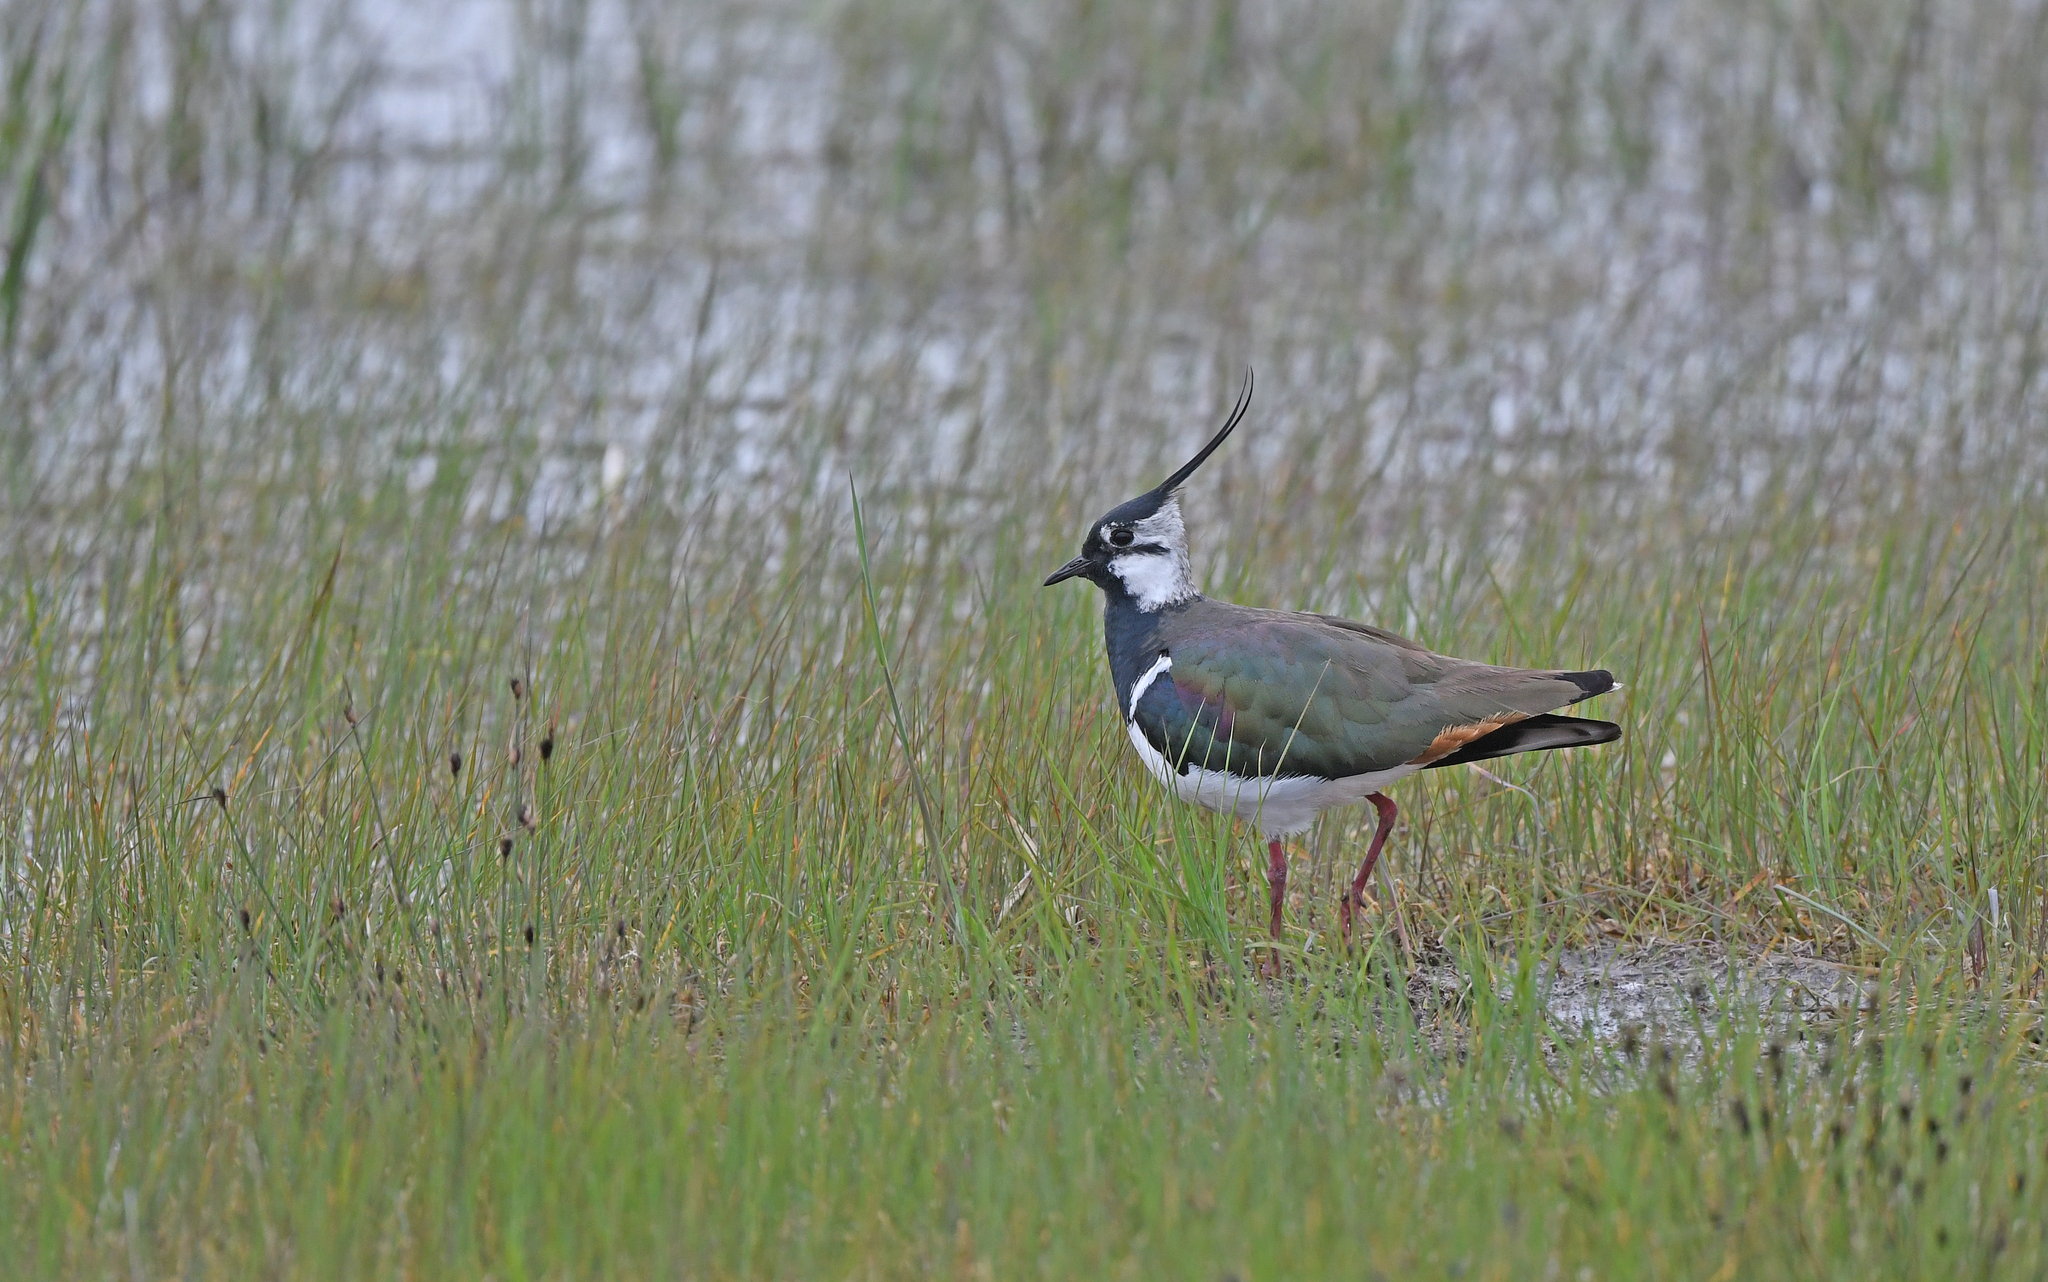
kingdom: Animalia
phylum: Chordata
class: Aves
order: Charadriiformes
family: Charadriidae
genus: Vanellus
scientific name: Vanellus vanellus
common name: Northern lapwing
